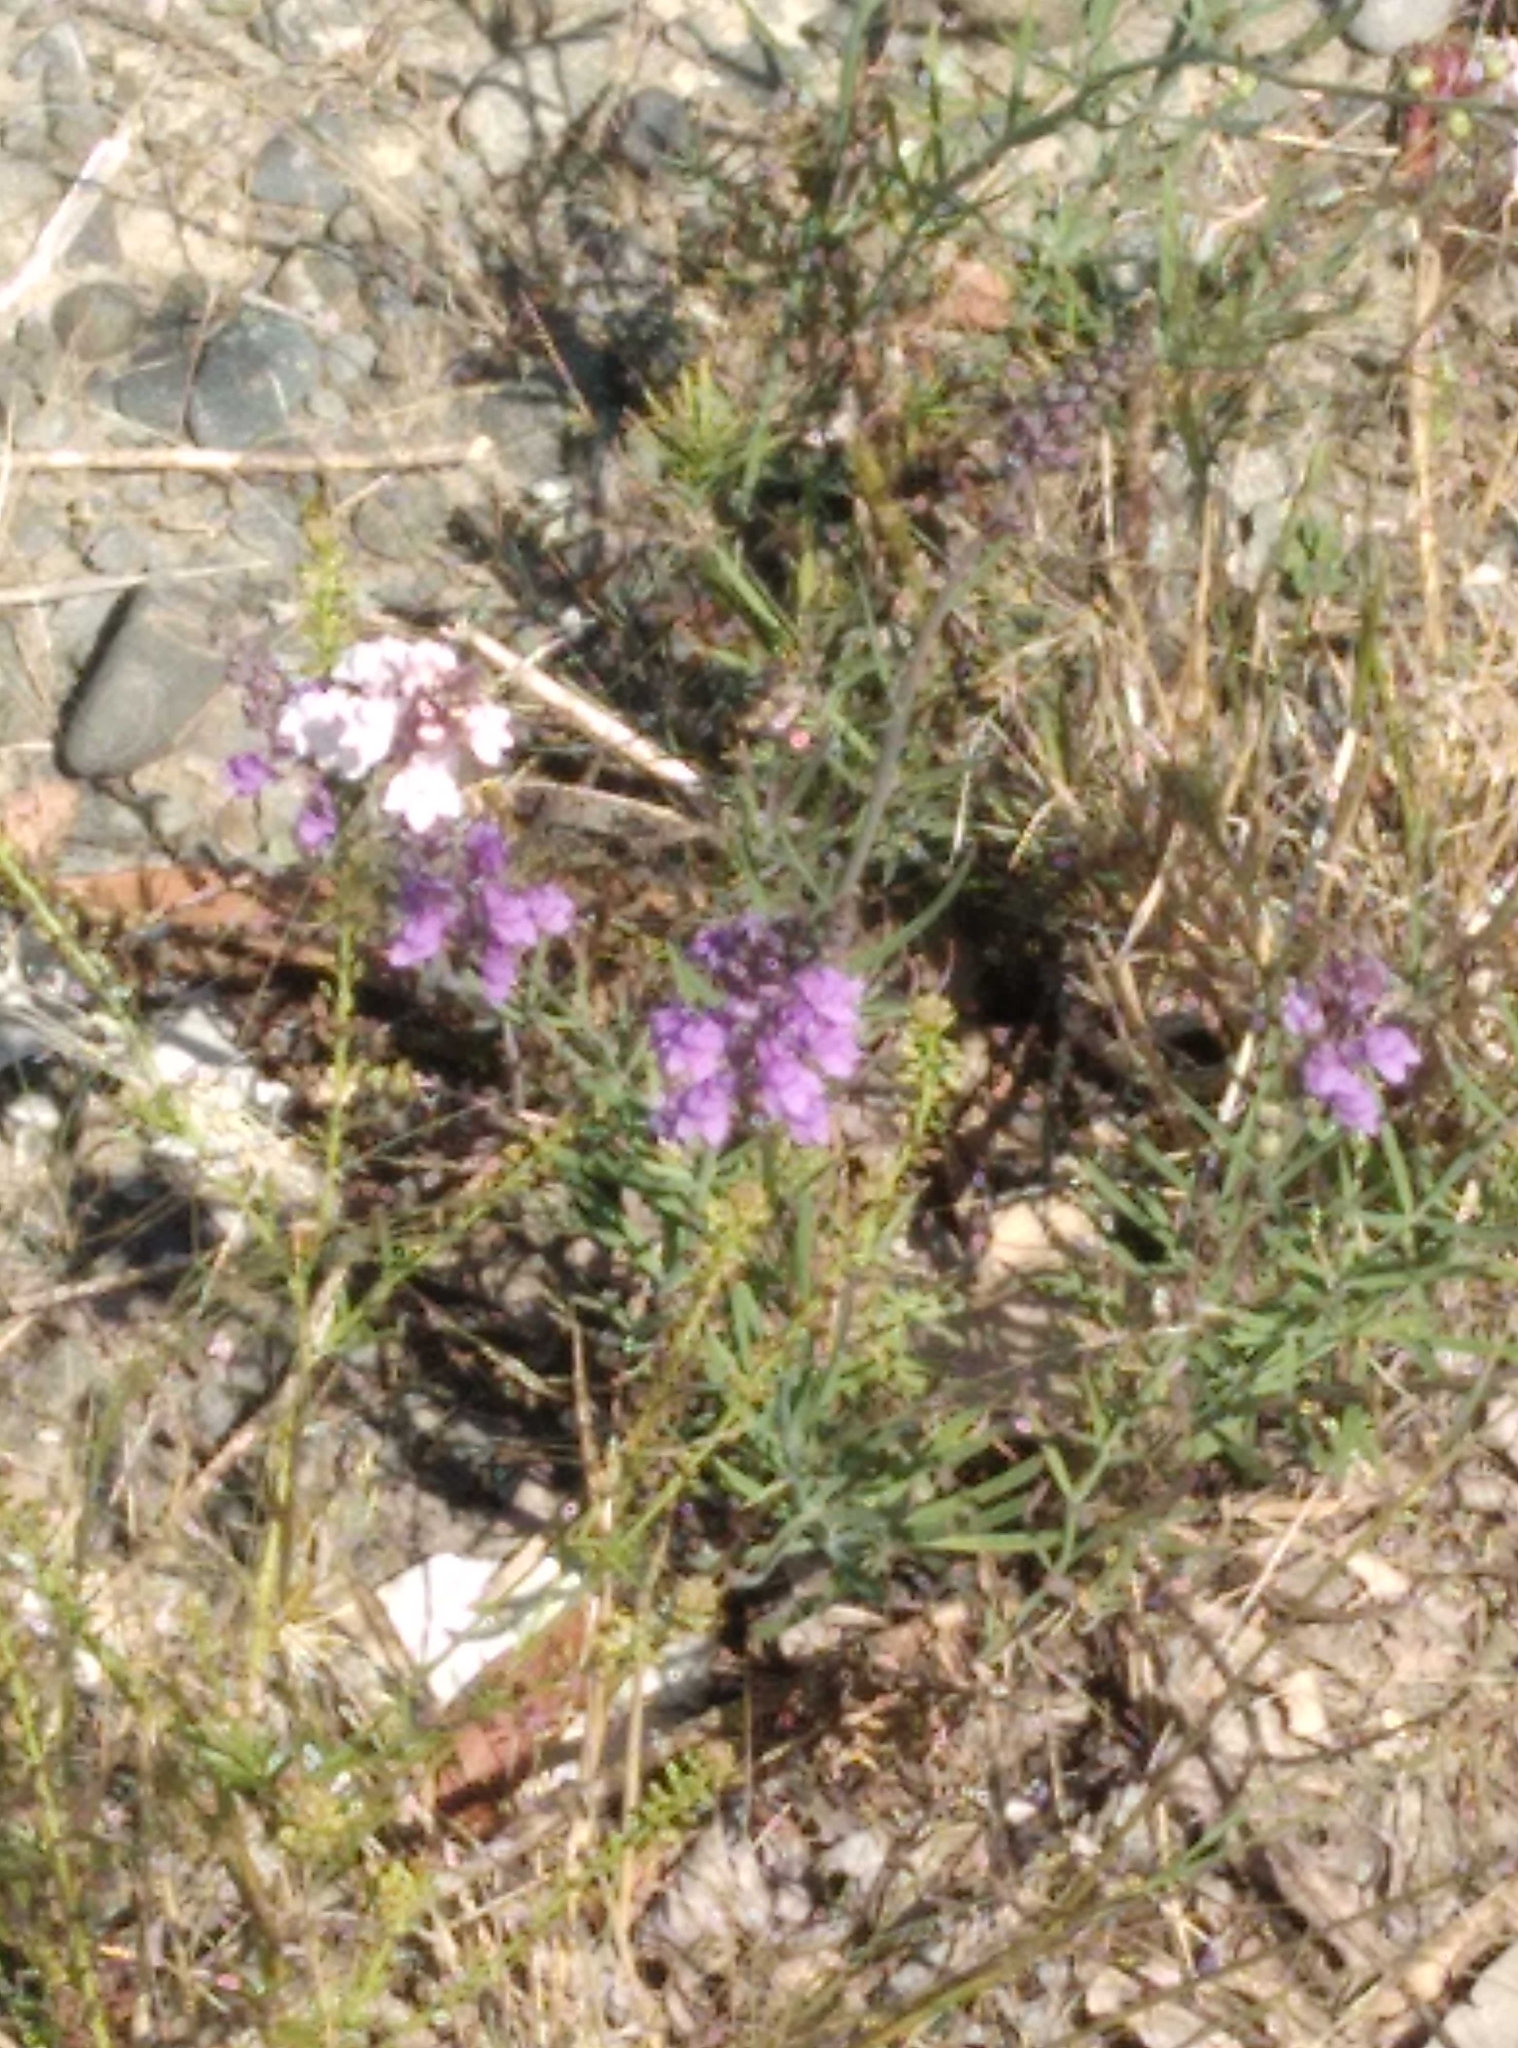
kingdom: Plantae
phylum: Tracheophyta
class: Magnoliopsida
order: Lamiales
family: Plantaginaceae
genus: Linaria
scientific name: Linaria purpurea
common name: Purple toadflax
